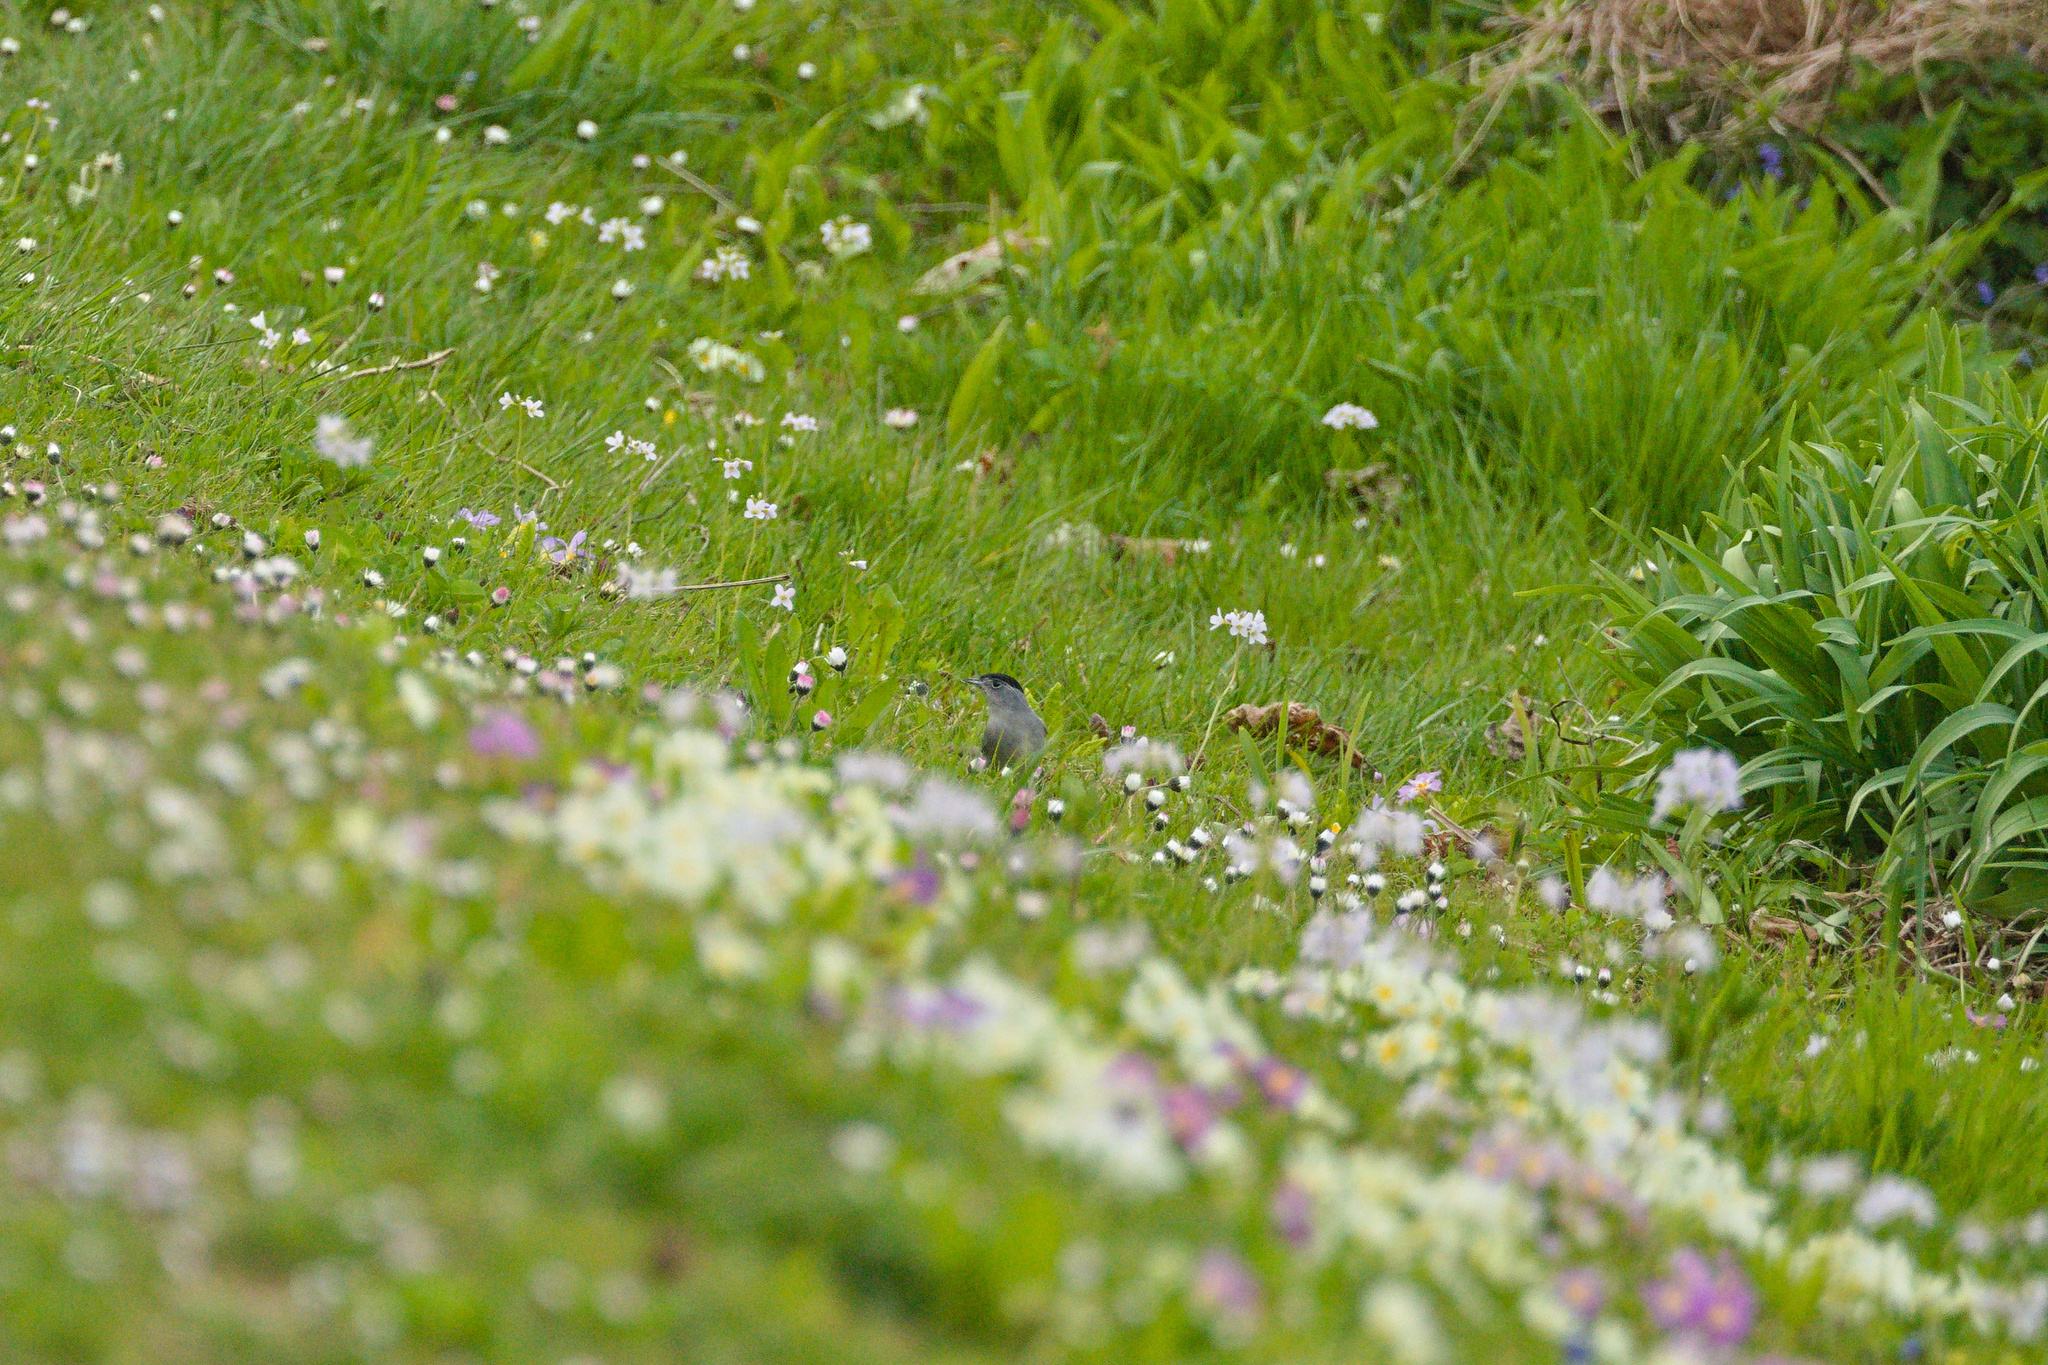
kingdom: Animalia
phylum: Chordata
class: Aves
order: Passeriformes
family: Sylviidae
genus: Sylvia
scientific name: Sylvia atricapilla
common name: Eurasian blackcap
